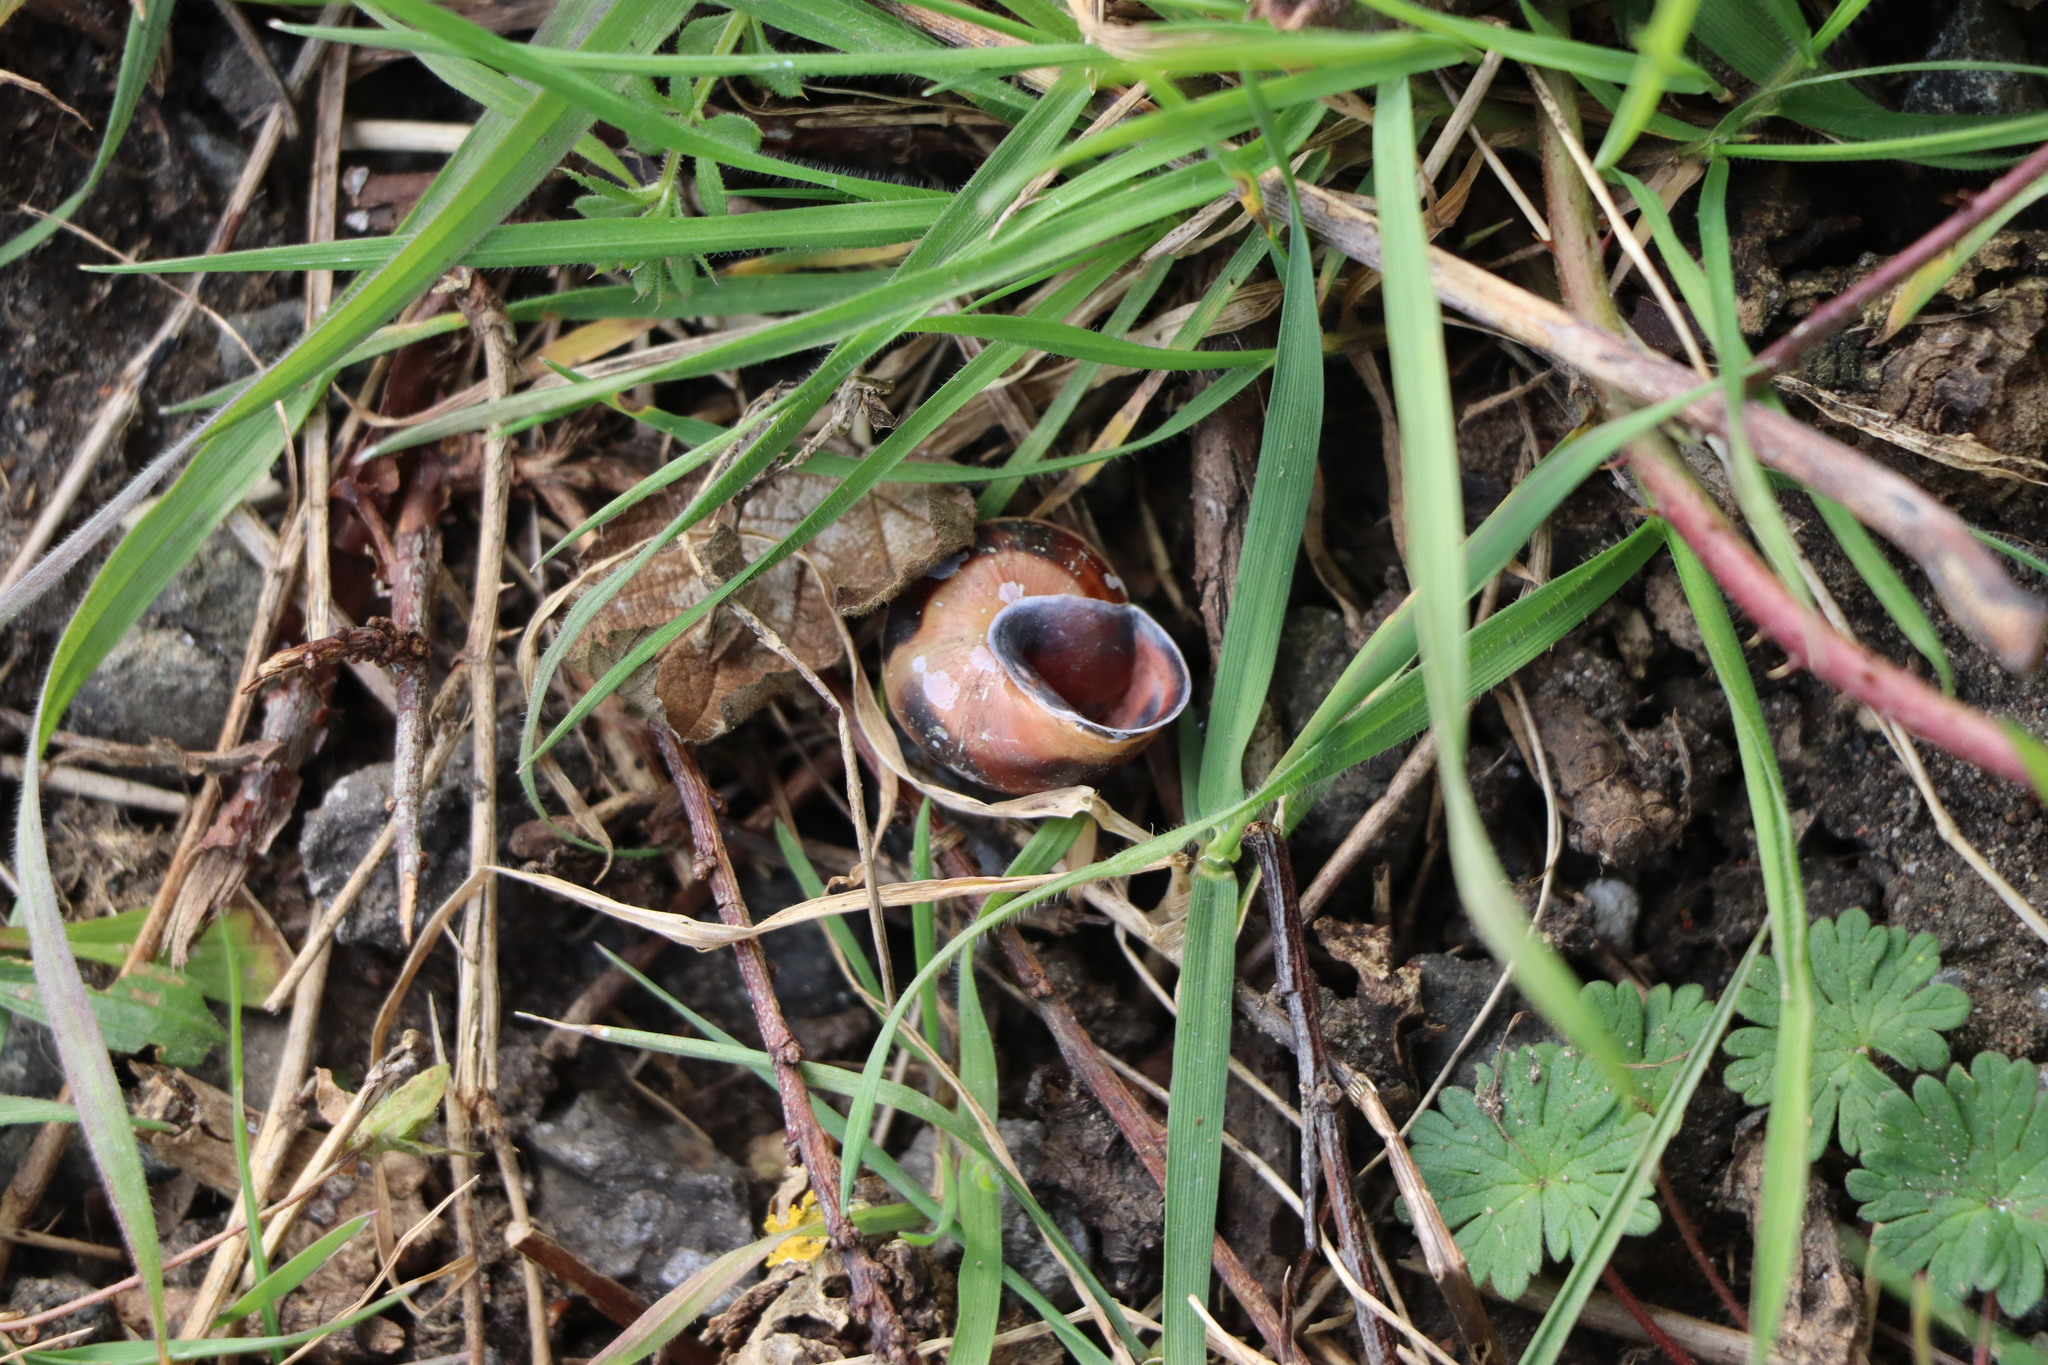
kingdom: Animalia
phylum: Mollusca
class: Gastropoda
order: Stylommatophora
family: Helicidae
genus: Cepaea
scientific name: Cepaea nemoralis
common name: Grovesnail
